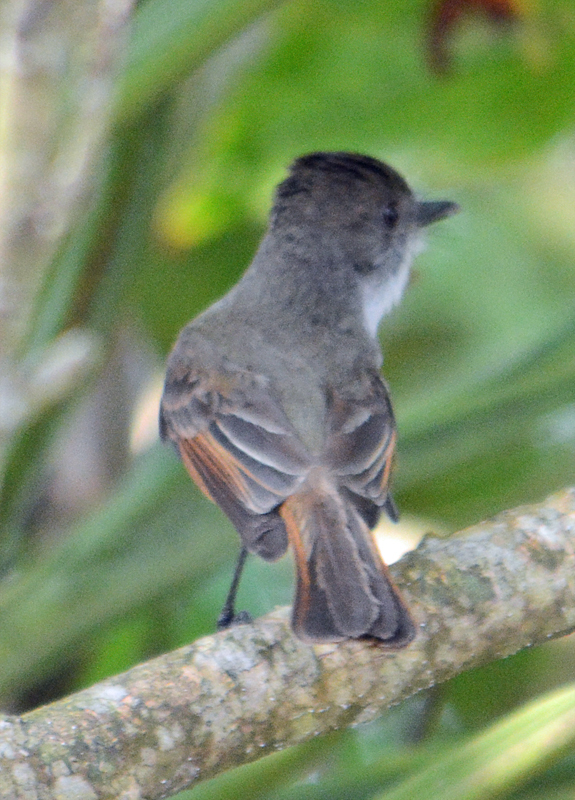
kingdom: Animalia
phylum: Chordata
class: Aves
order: Passeriformes
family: Tyrannidae
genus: Myiarchus
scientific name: Myiarchus tuberculifer
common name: Dusky-capped flycatcher
